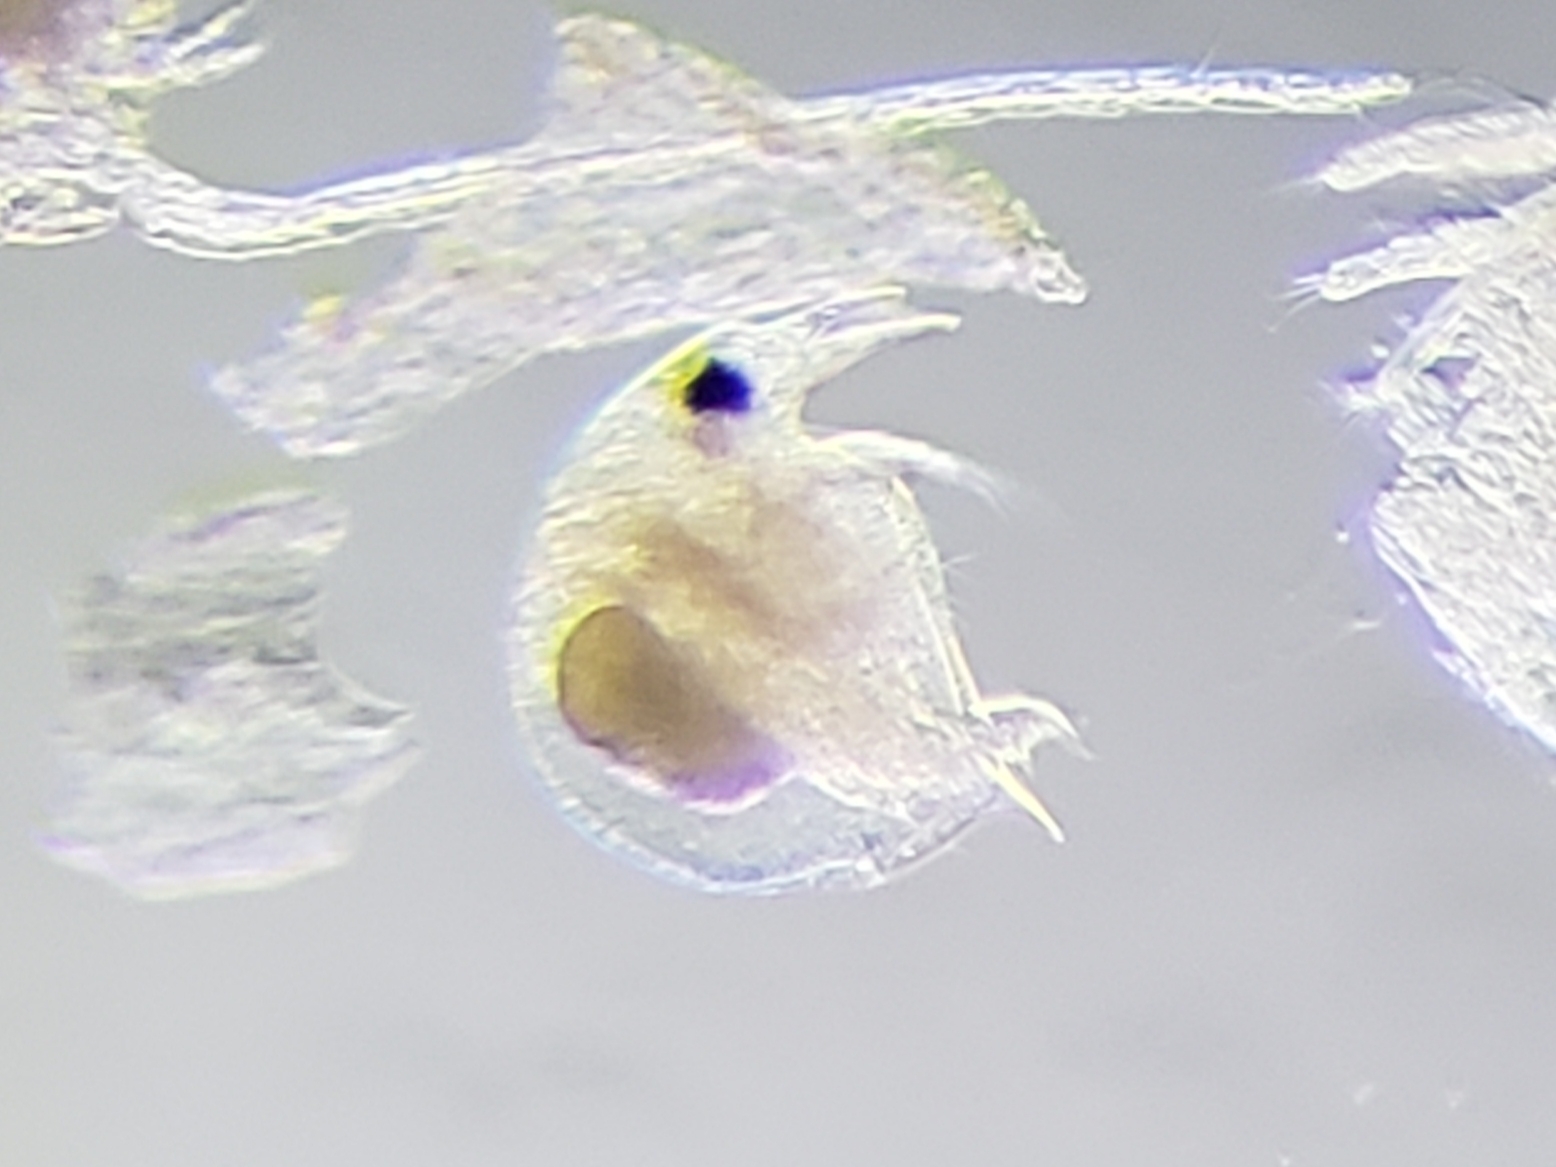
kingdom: Animalia
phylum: Arthropoda
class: Branchiopoda
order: Diplostraca
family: Bosminidae
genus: Bosmina
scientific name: Bosmina longirostris
